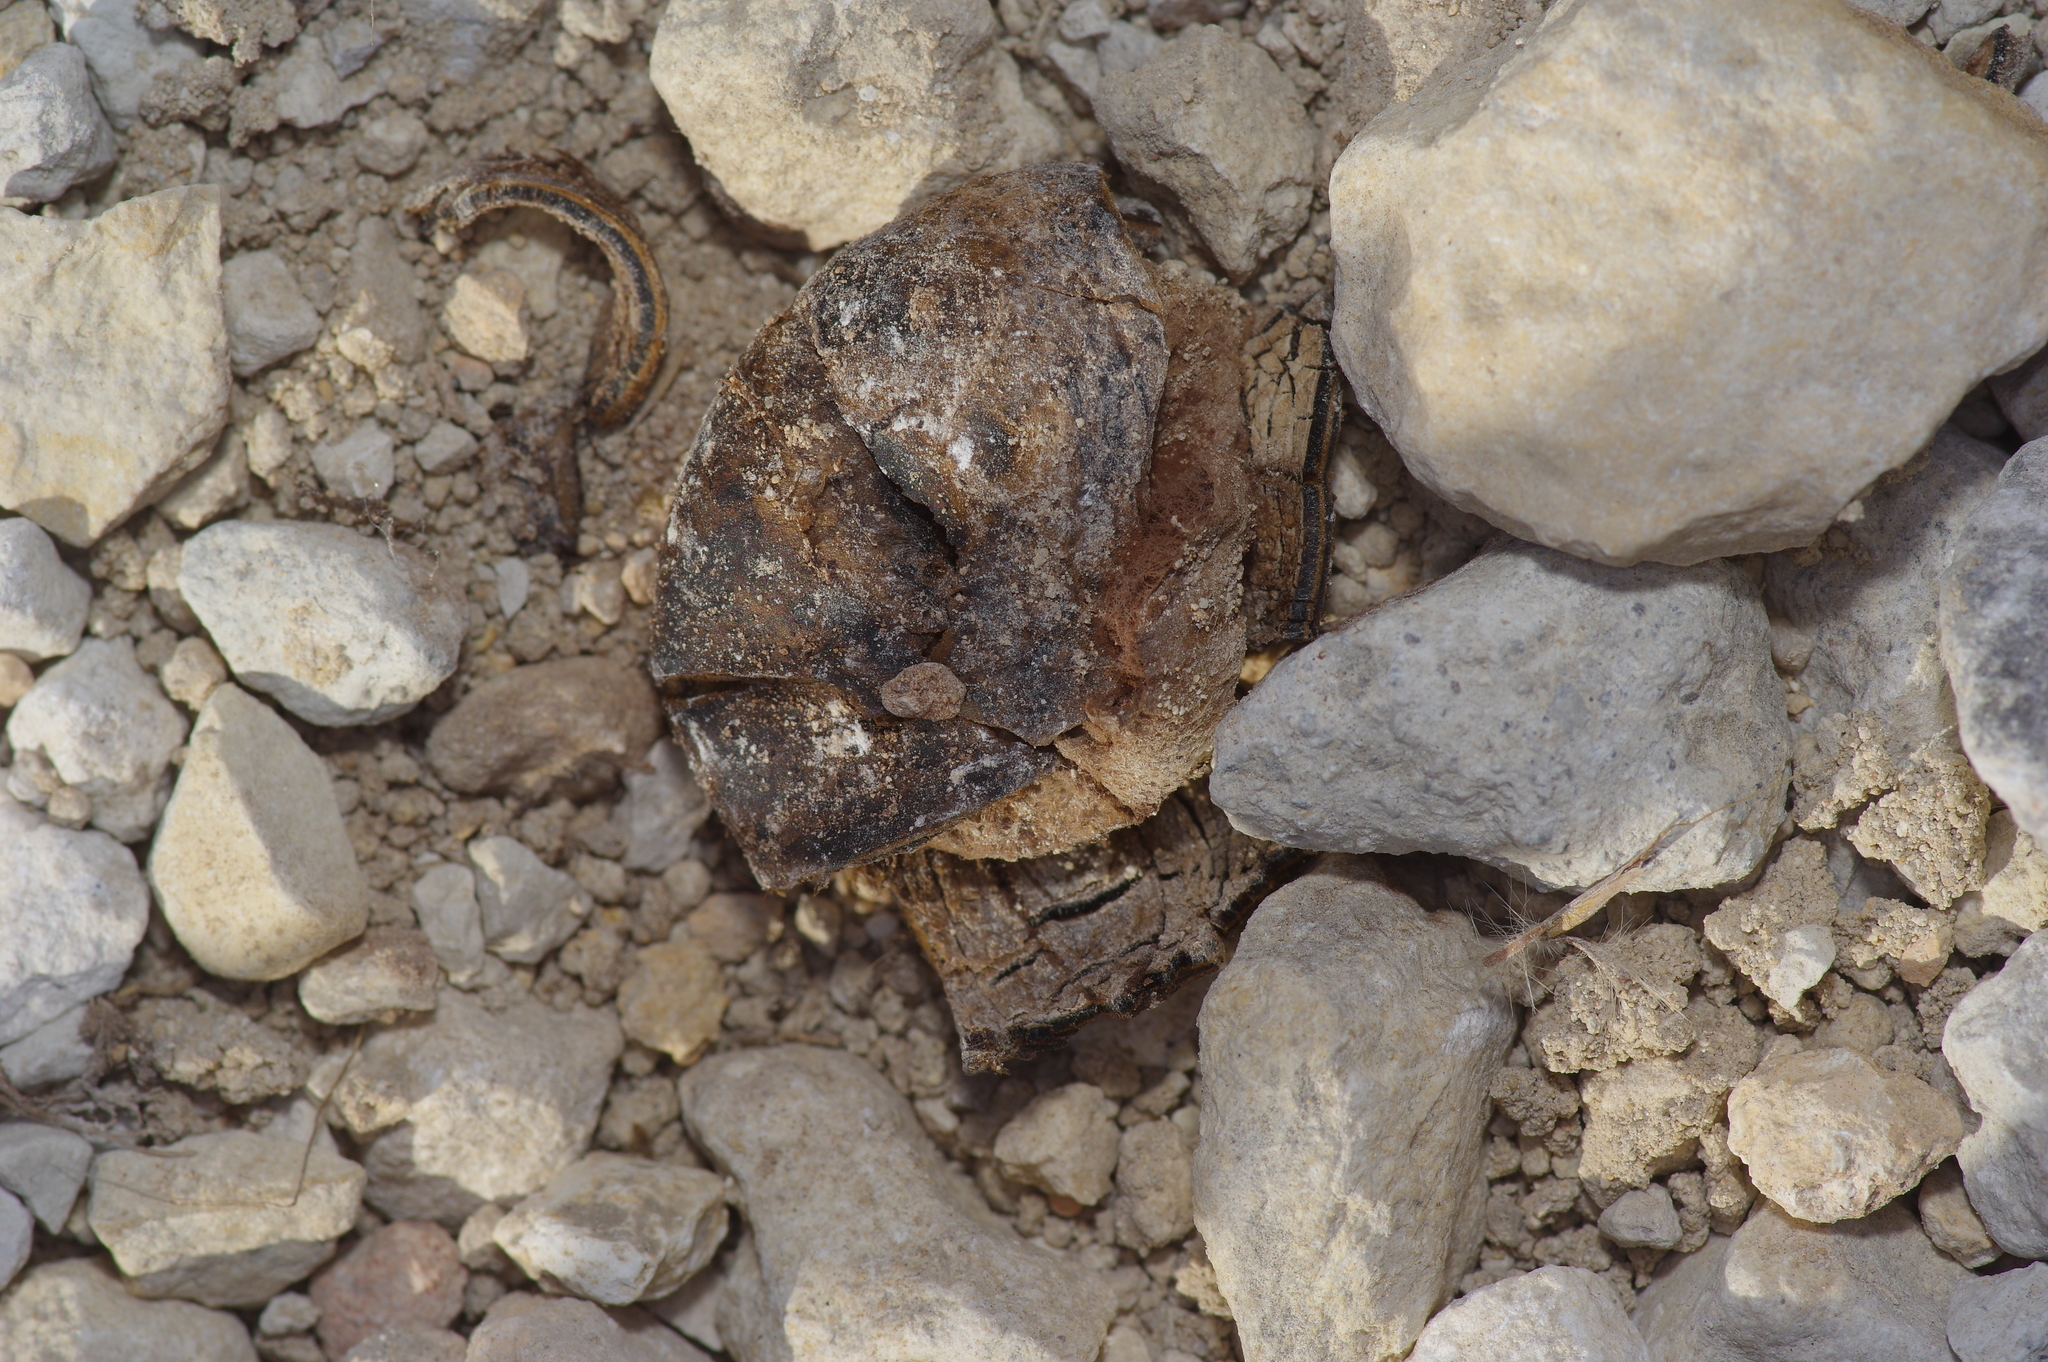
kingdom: Fungi
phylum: Basidiomycota
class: Agaricomycetes
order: Boletales
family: Diplocystidiaceae
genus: Astraeus
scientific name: Astraeus morganii
